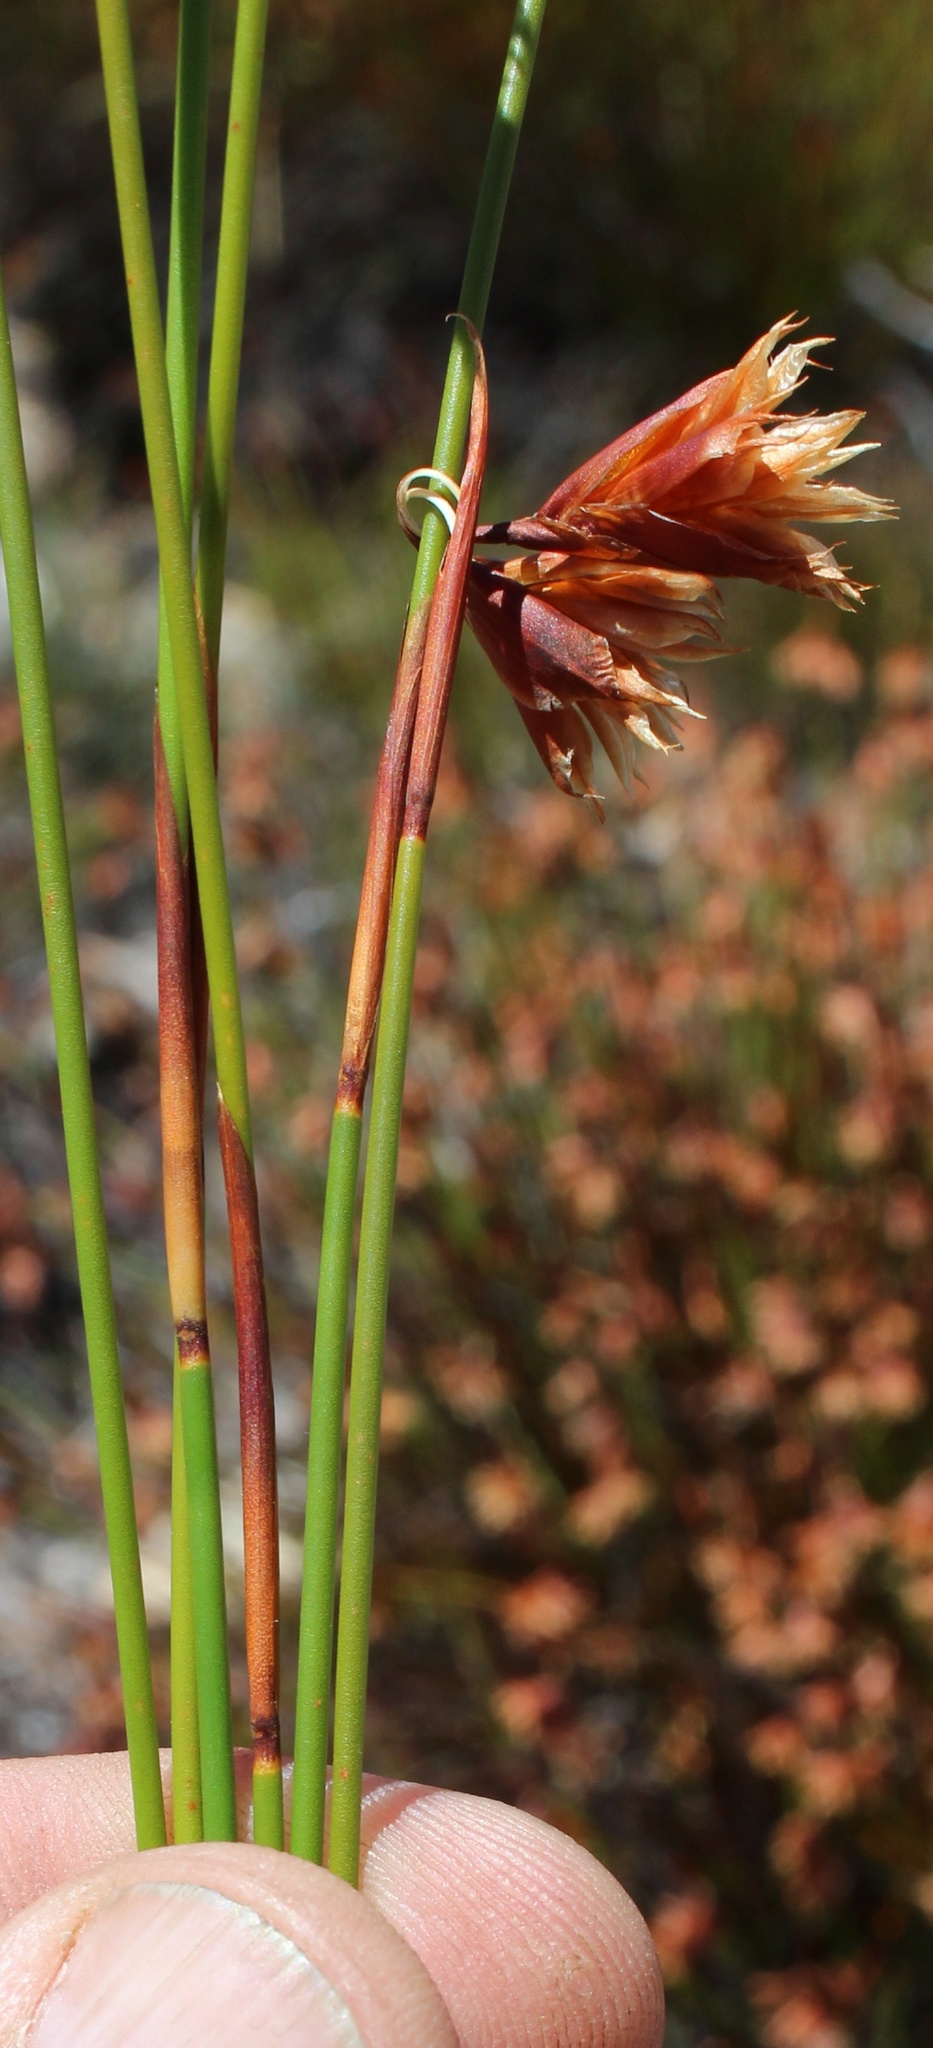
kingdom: Plantae
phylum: Tracheophyta
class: Liliopsida
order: Poales
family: Restionaceae
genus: Staberoha
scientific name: Staberoha aemula
